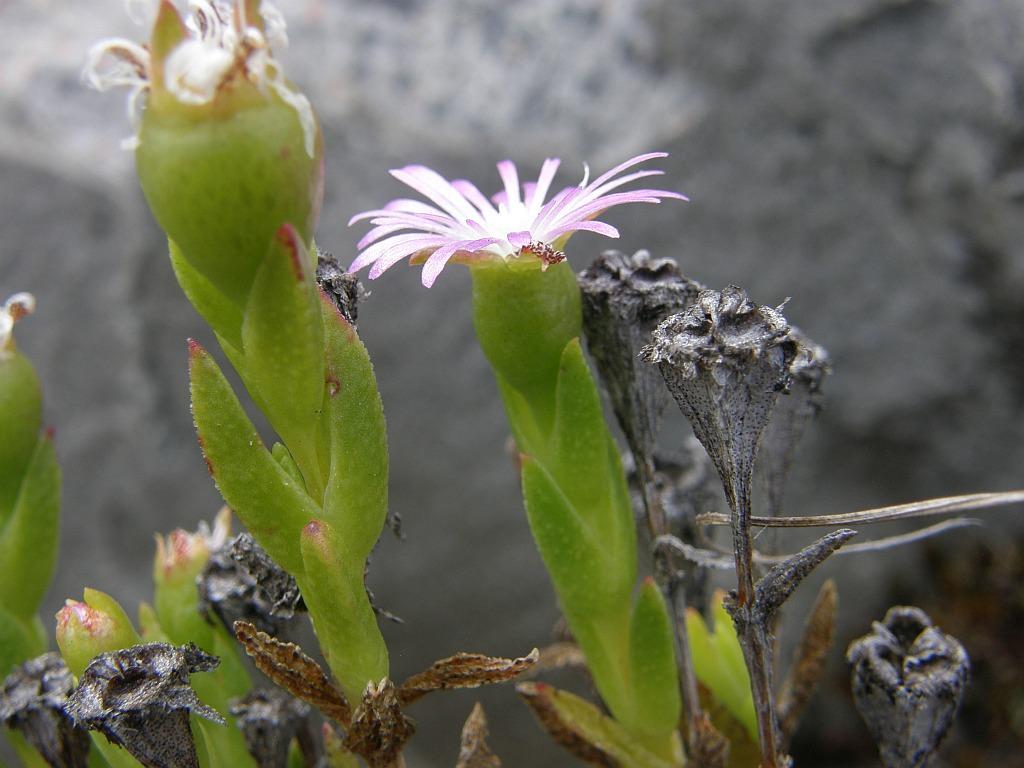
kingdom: Plantae
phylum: Tracheophyta
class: Magnoliopsida
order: Caryophyllales
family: Aizoaceae
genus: Erepsia
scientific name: Erepsia oxysepala
